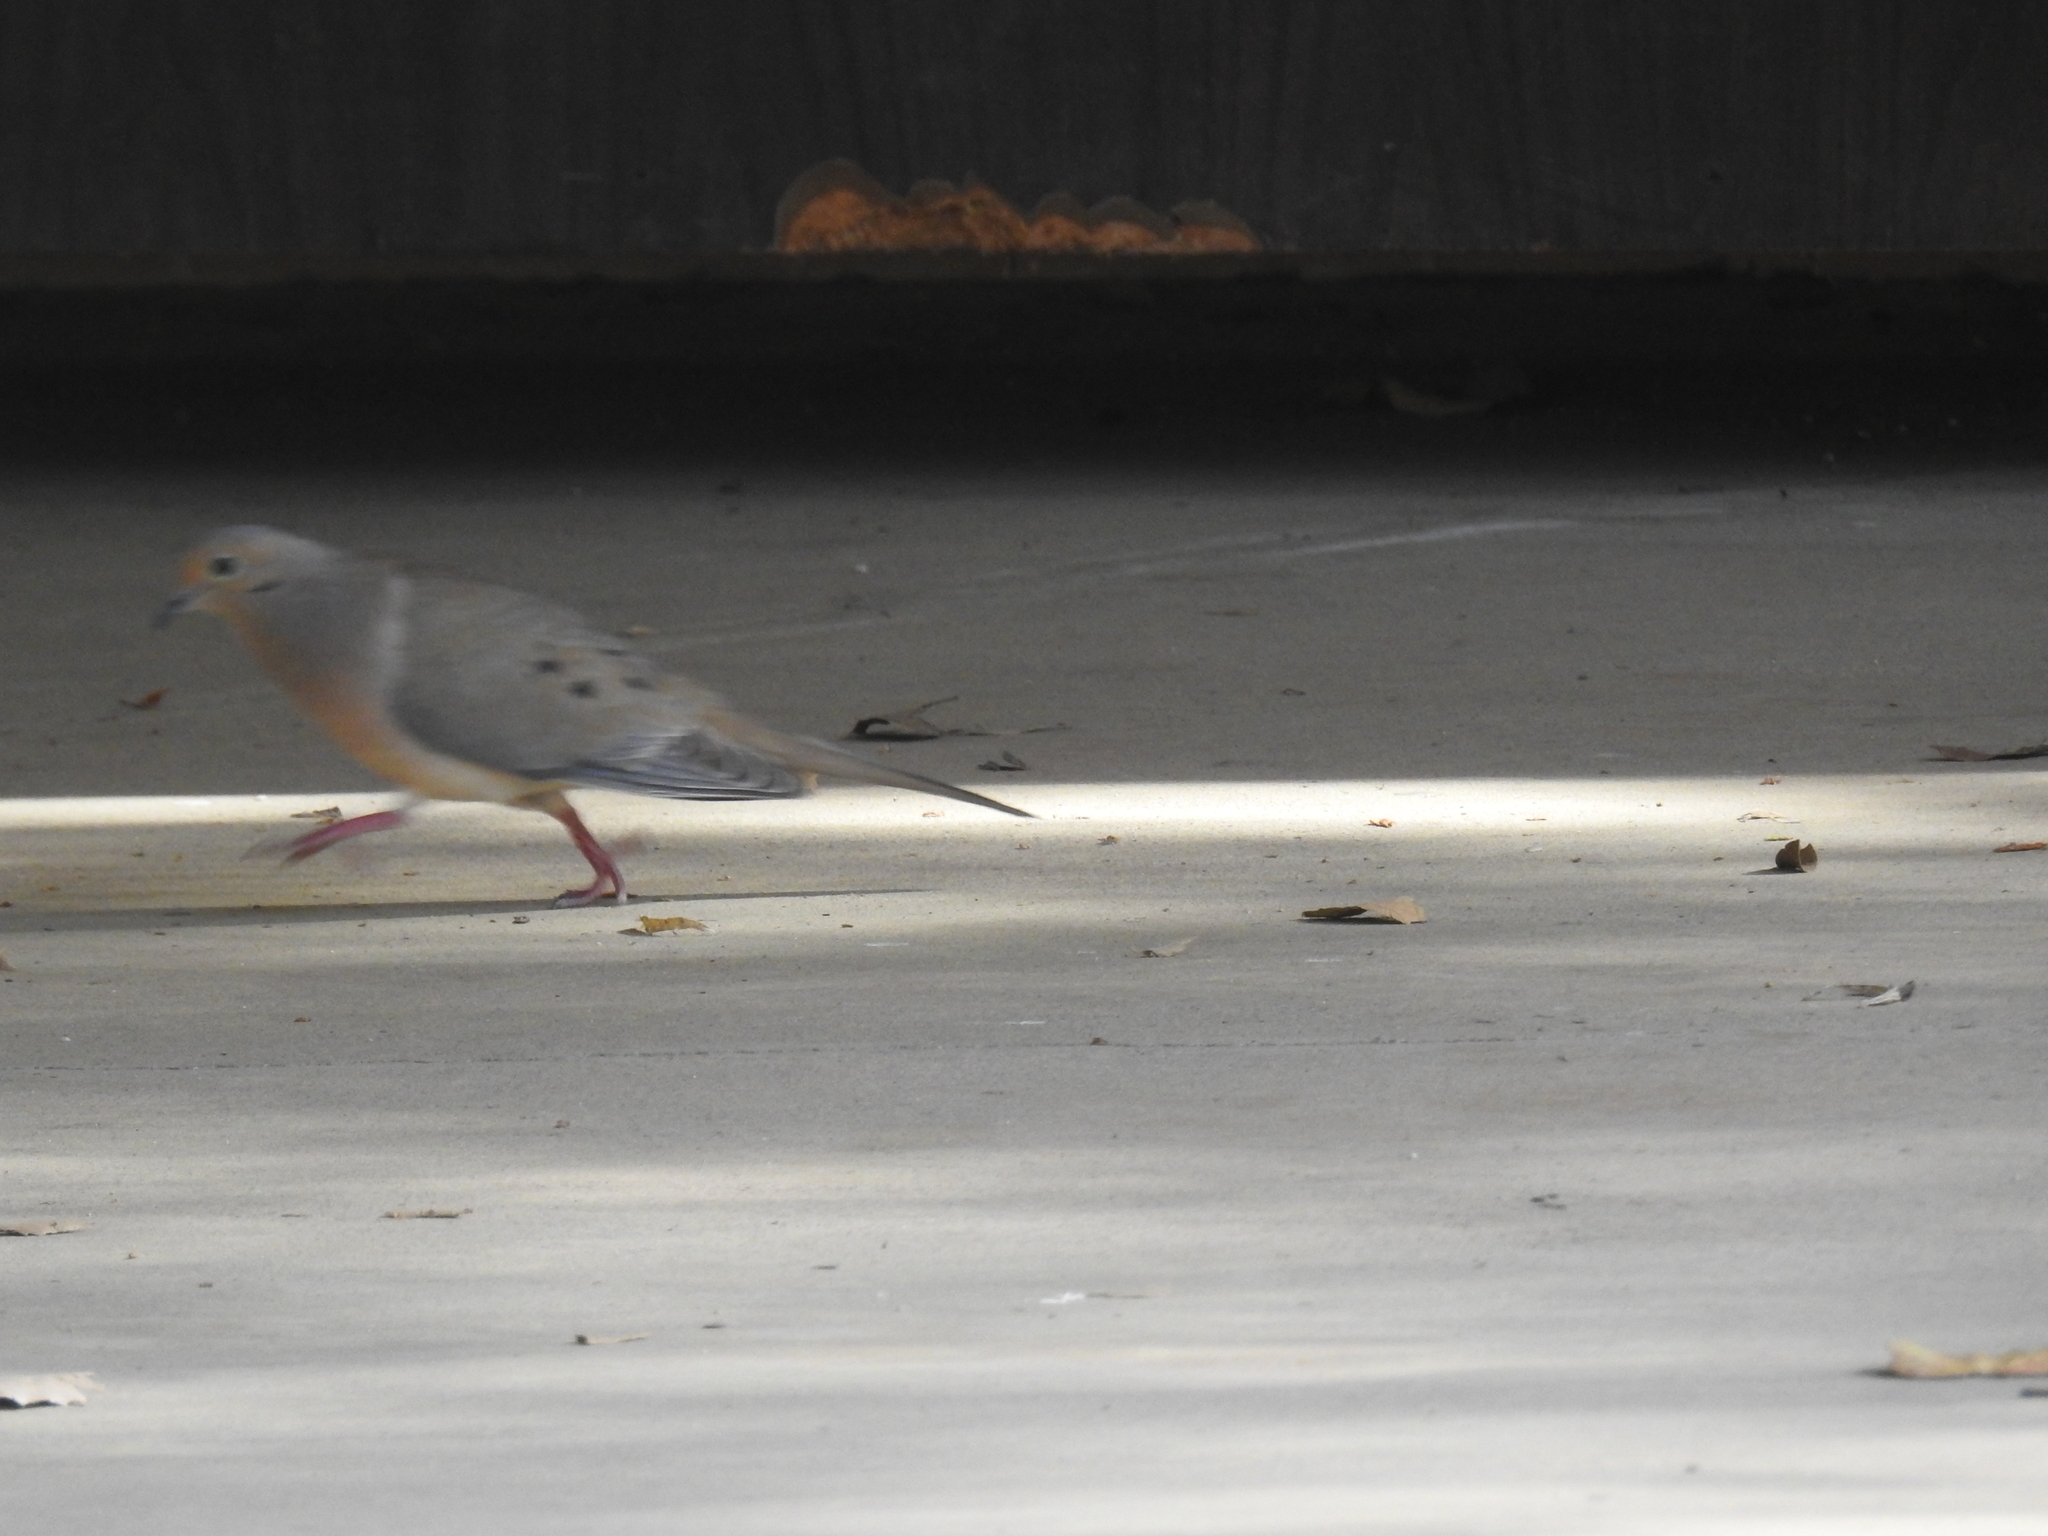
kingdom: Animalia
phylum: Chordata
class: Aves
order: Columbiformes
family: Columbidae
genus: Zenaida
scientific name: Zenaida macroura
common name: Mourning dove
